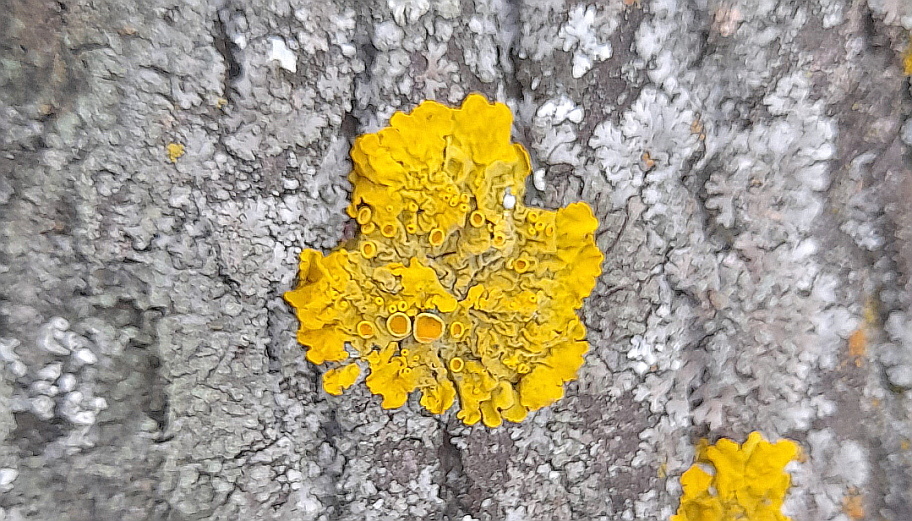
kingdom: Fungi
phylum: Ascomycota
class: Lecanoromycetes
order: Teloschistales
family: Teloschistaceae
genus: Xanthoria
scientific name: Xanthoria parietina
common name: Common orange lichen
